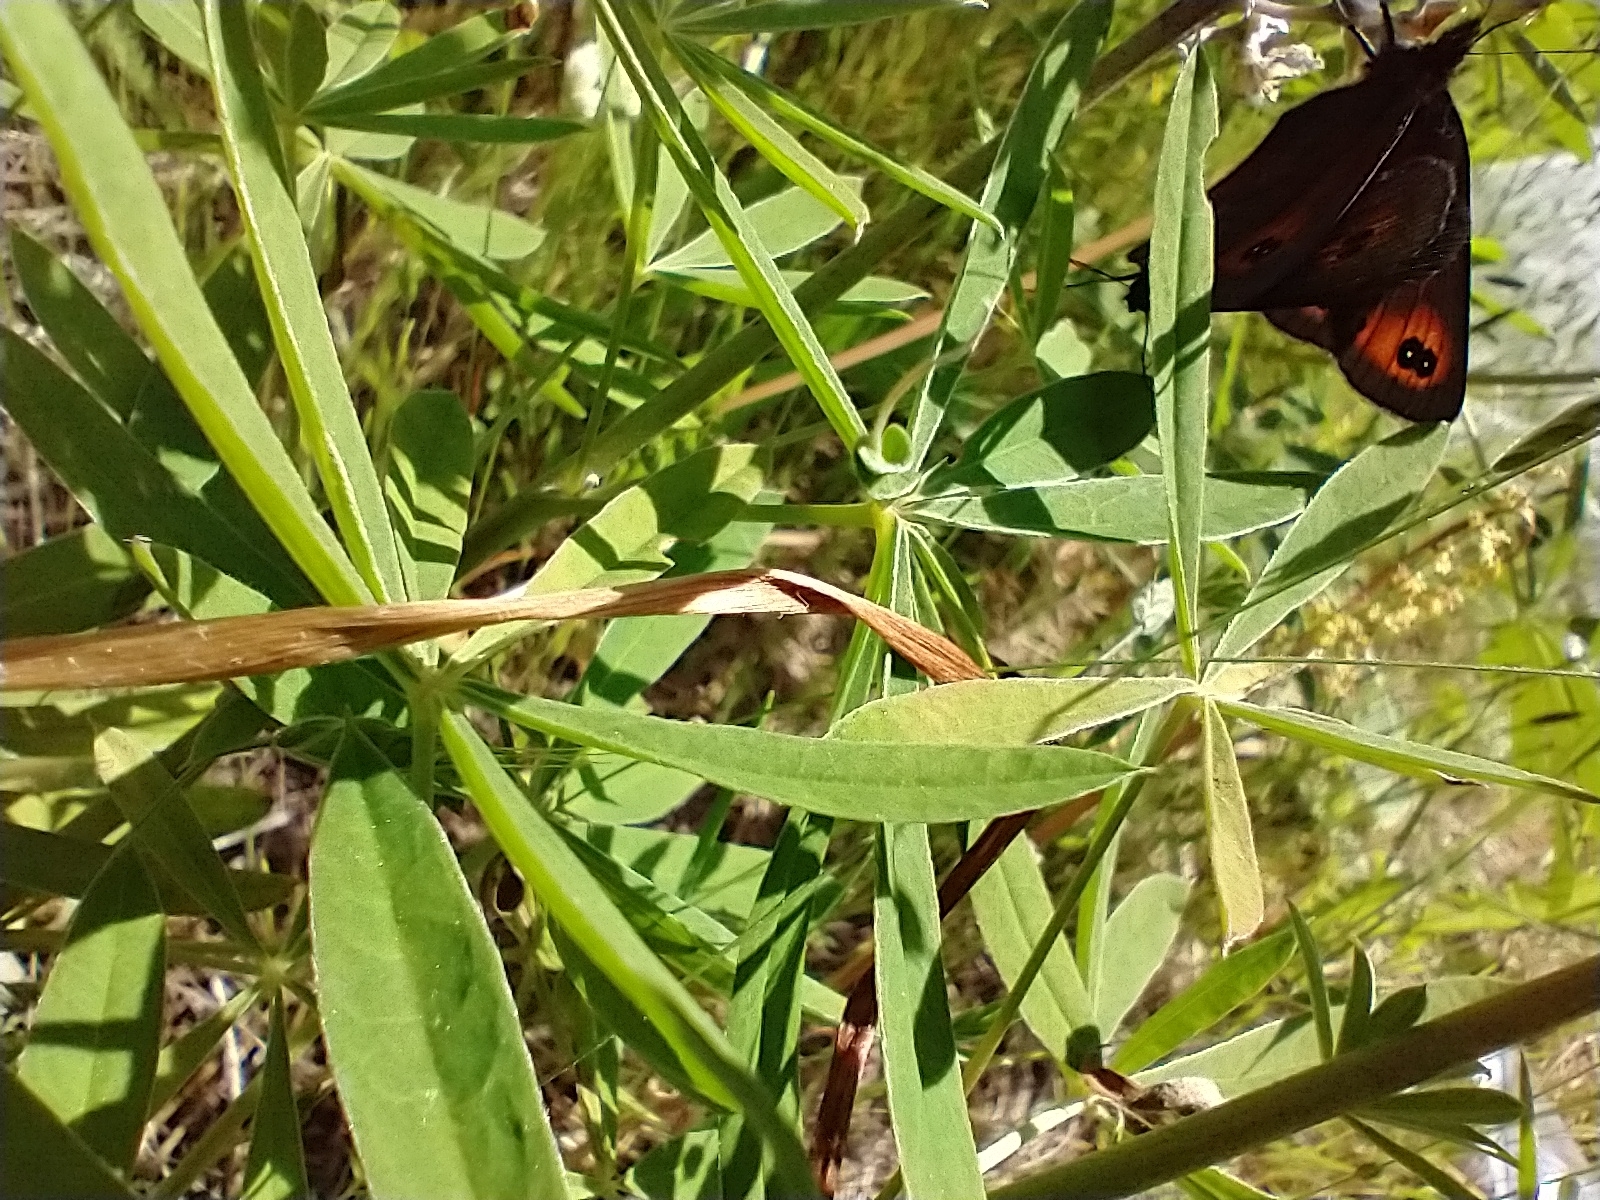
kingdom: Animalia
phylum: Arthropoda
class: Insecta
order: Lepidoptera
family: Nymphalidae
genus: Erebia
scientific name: Erebia epipsodea
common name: Common alpine
